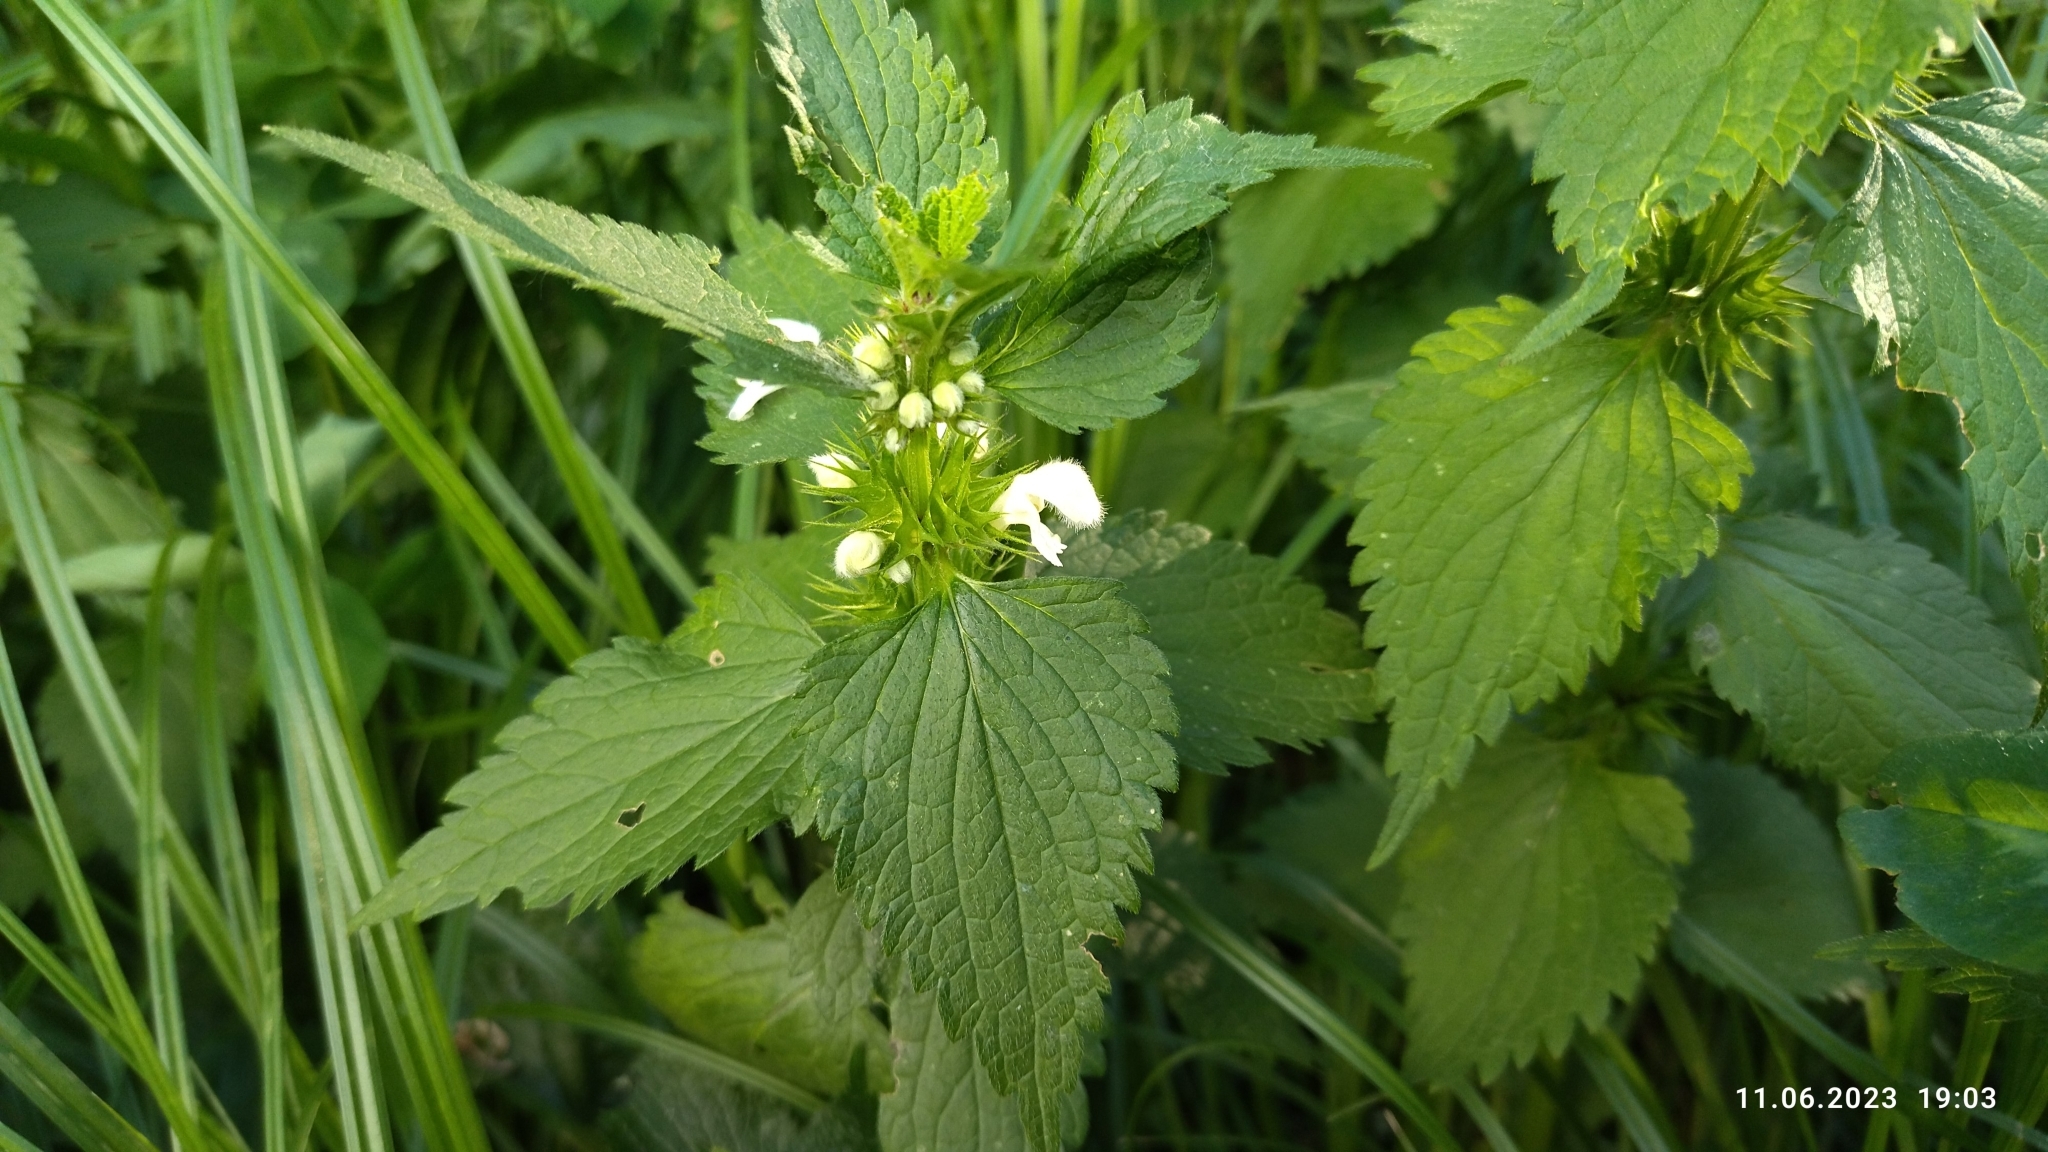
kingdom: Plantae
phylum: Tracheophyta
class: Magnoliopsida
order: Lamiales
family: Lamiaceae
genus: Lamium
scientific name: Lamium album
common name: White dead-nettle
